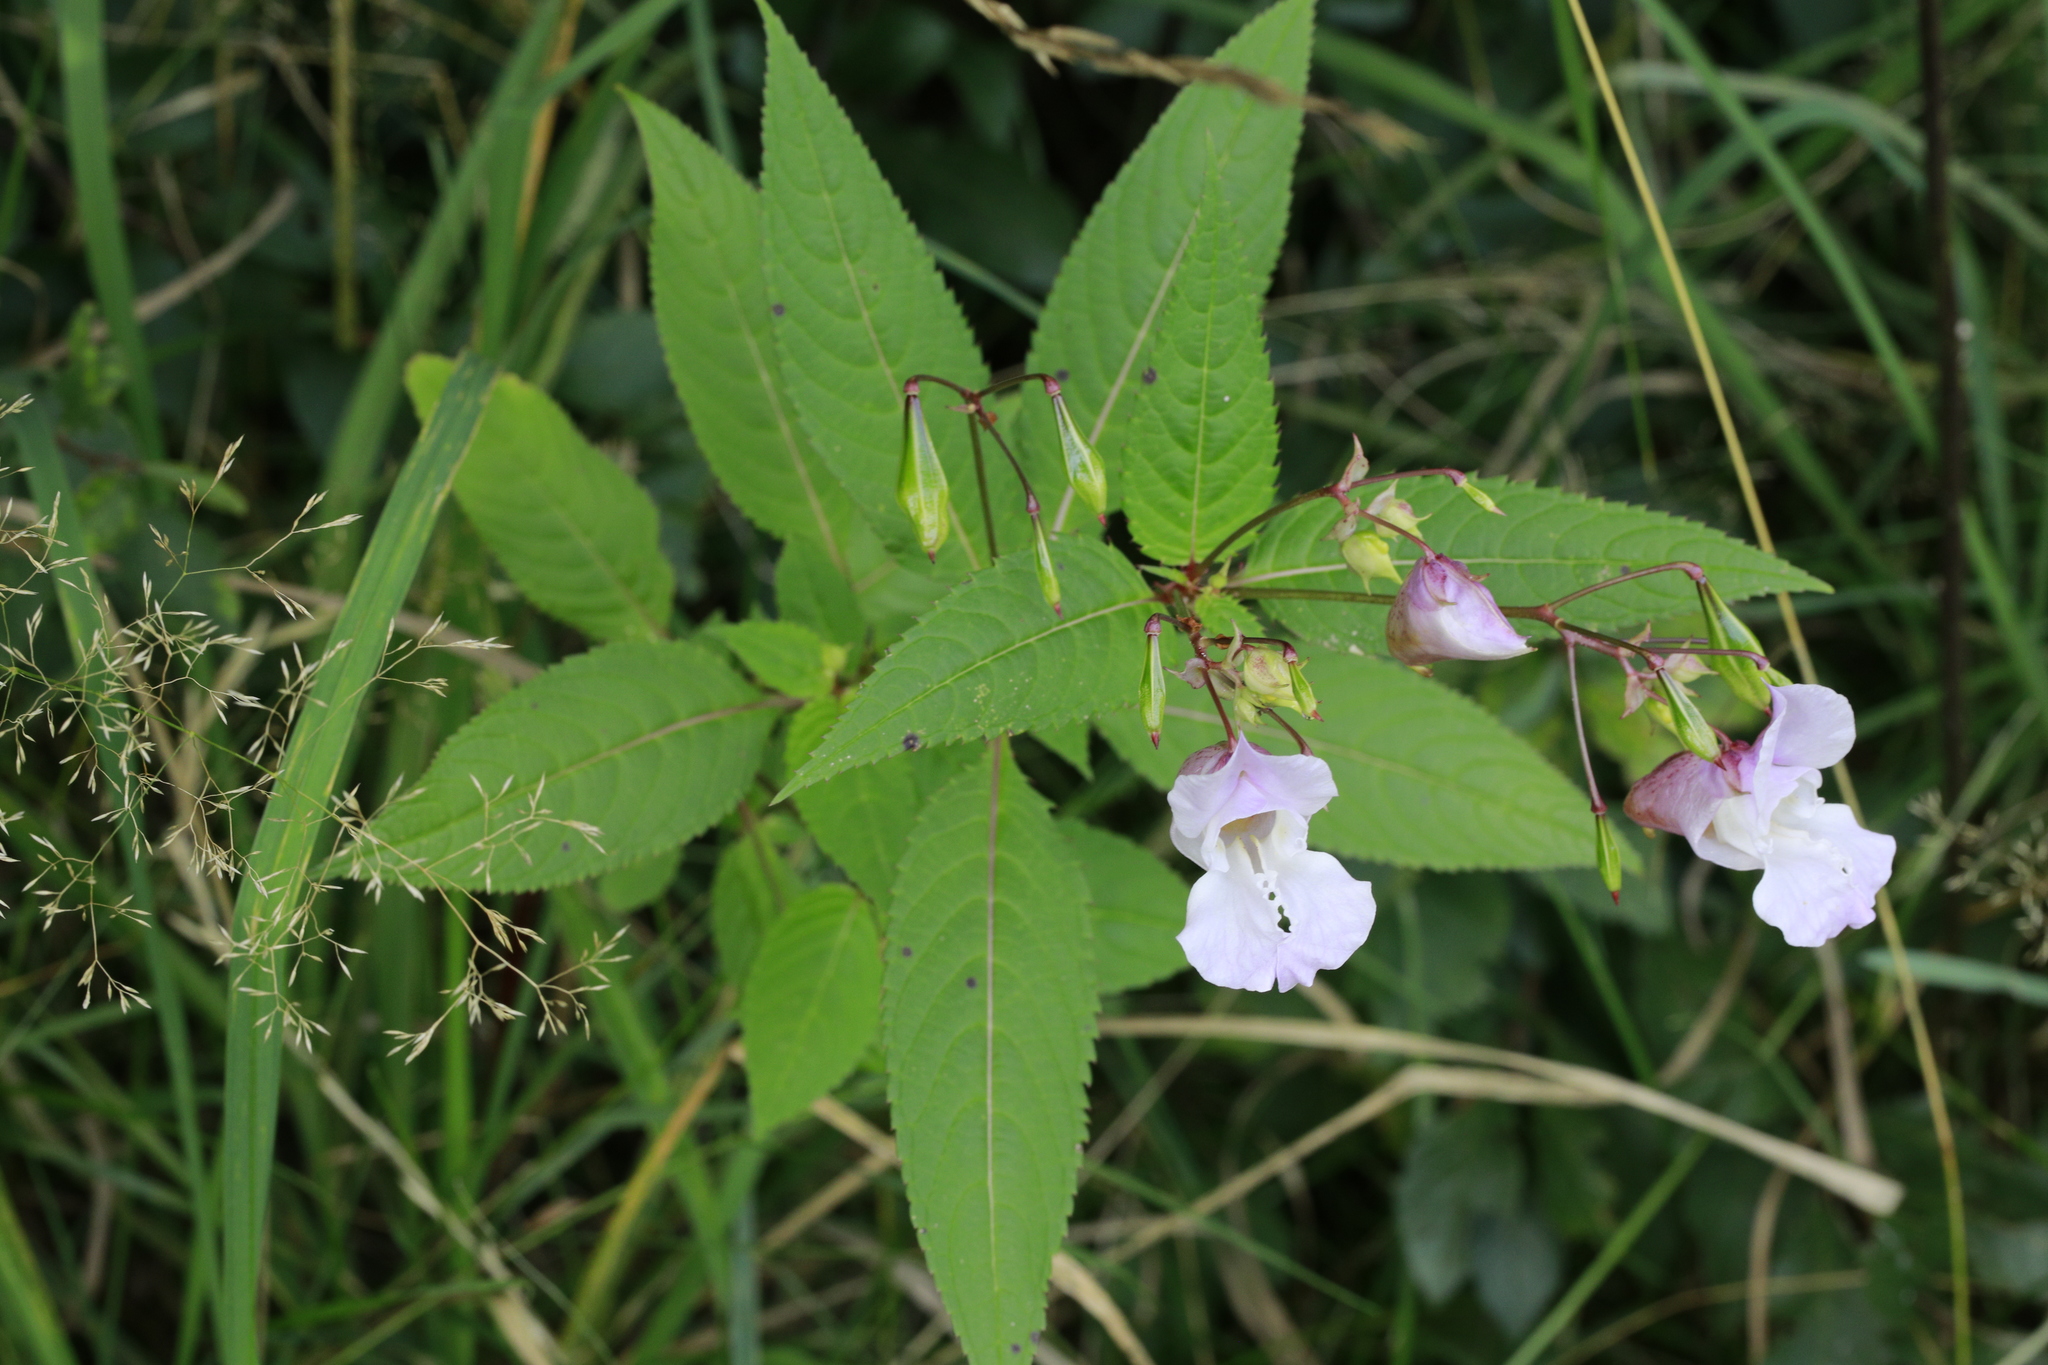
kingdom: Plantae
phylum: Tracheophyta
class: Magnoliopsida
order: Ericales
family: Balsaminaceae
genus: Impatiens
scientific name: Impatiens glandulifera
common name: Himalayan balsam
